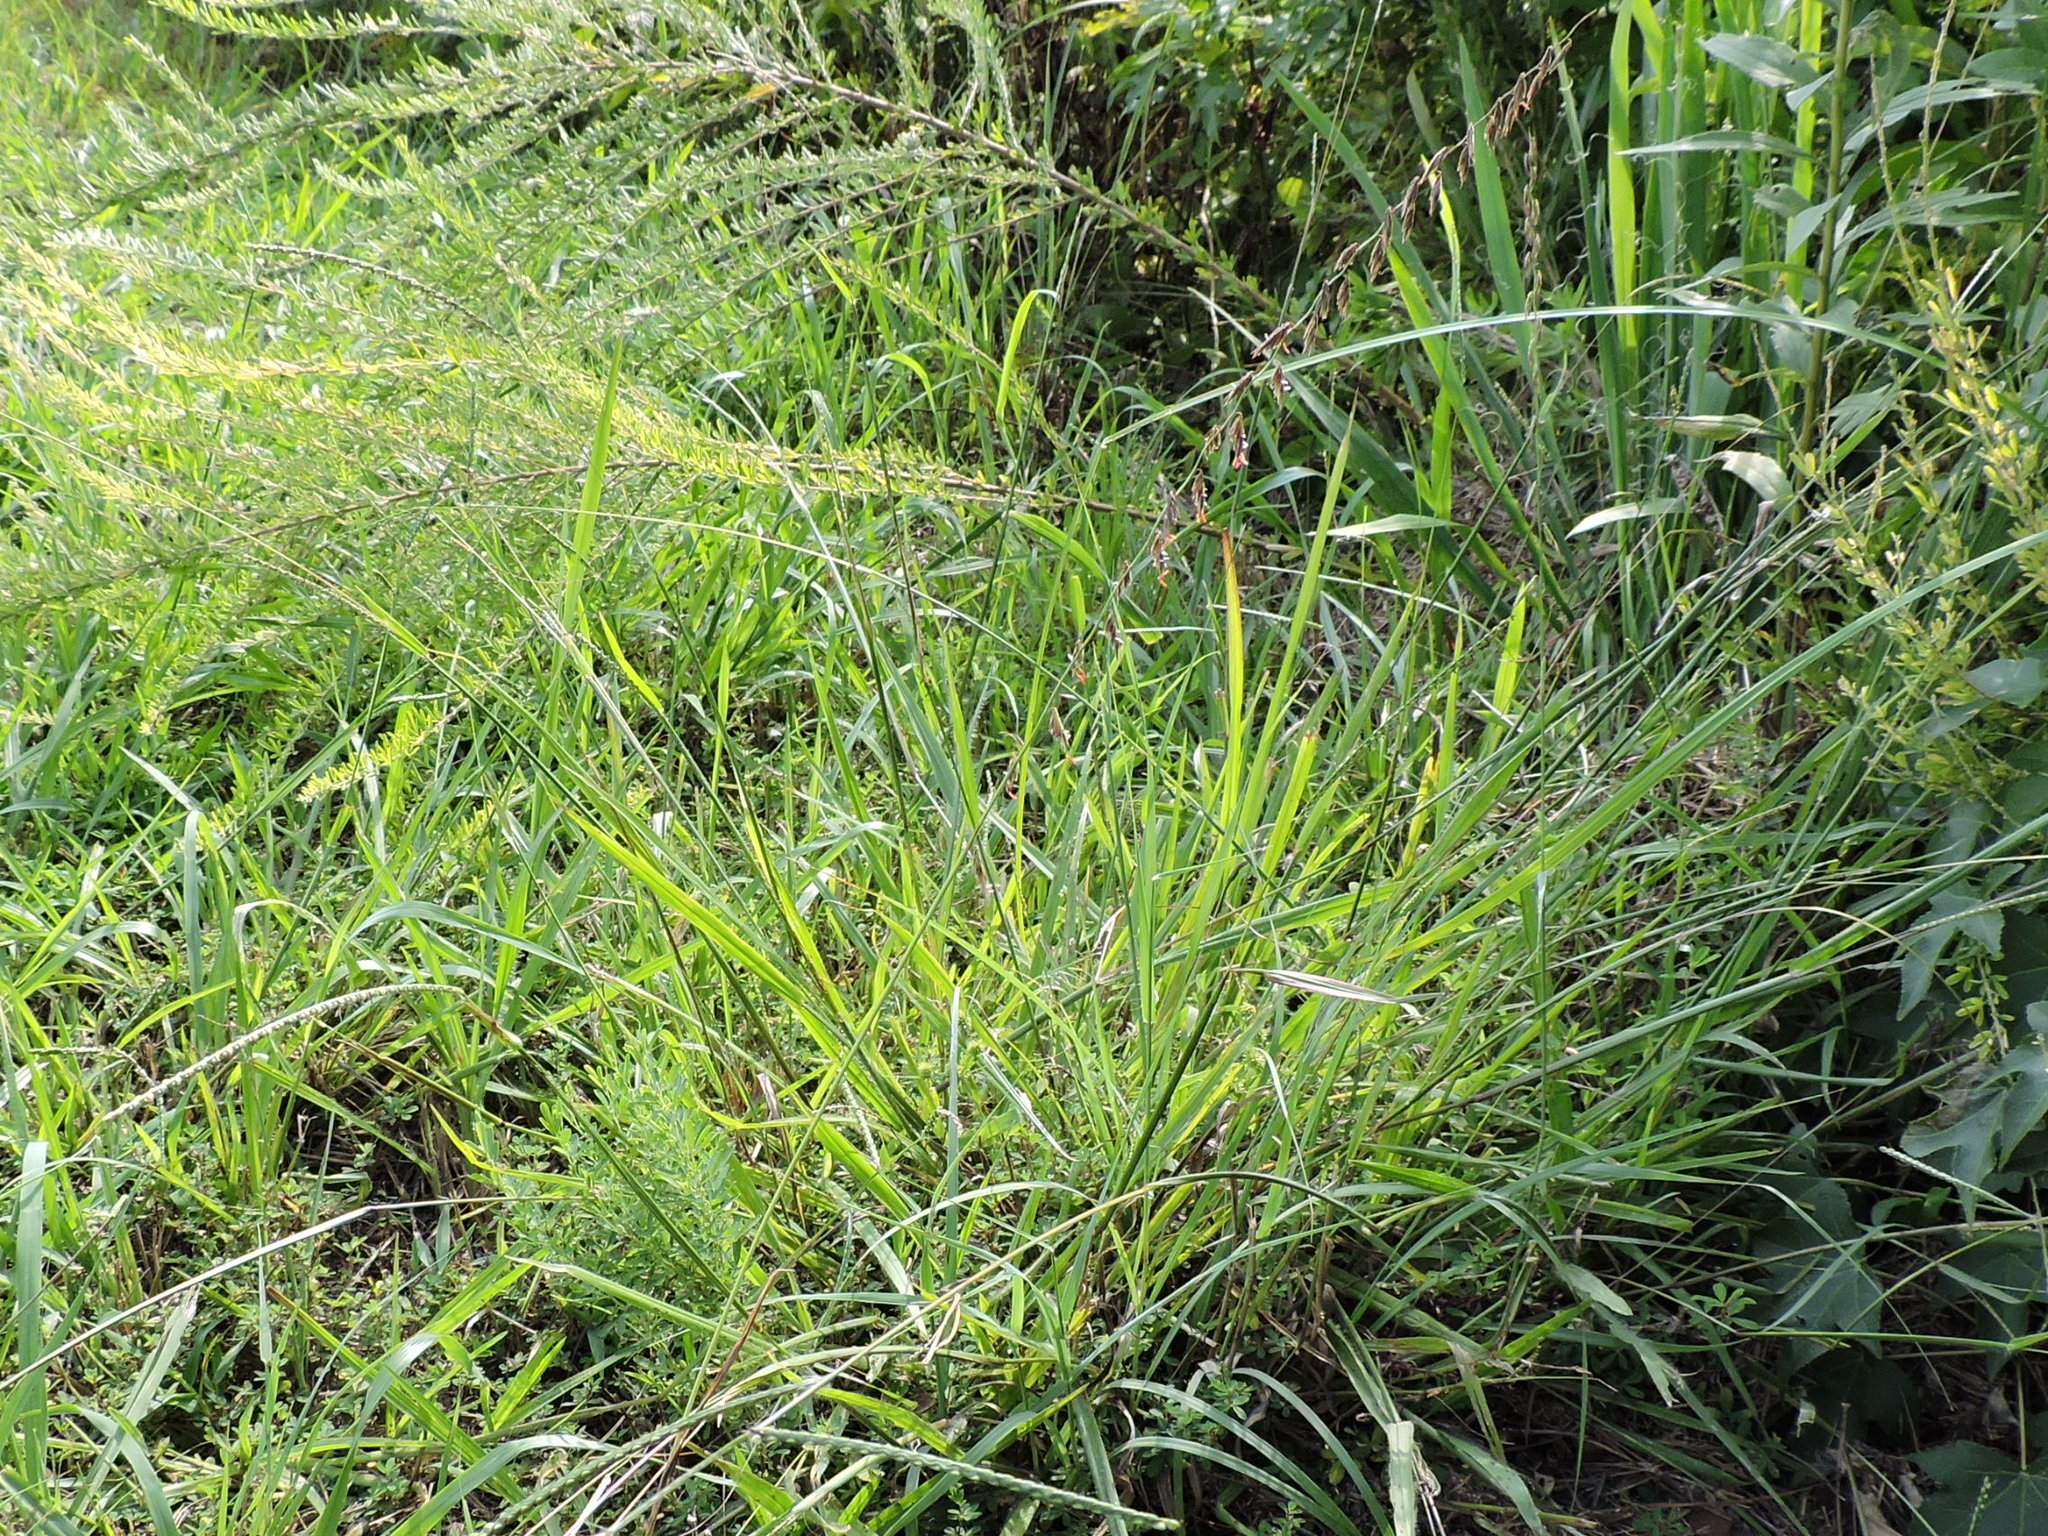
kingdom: Plantae
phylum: Tracheophyta
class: Liliopsida
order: Poales
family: Poaceae
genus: Bouteloua
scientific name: Bouteloua curtipendula
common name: Side-oats grama
